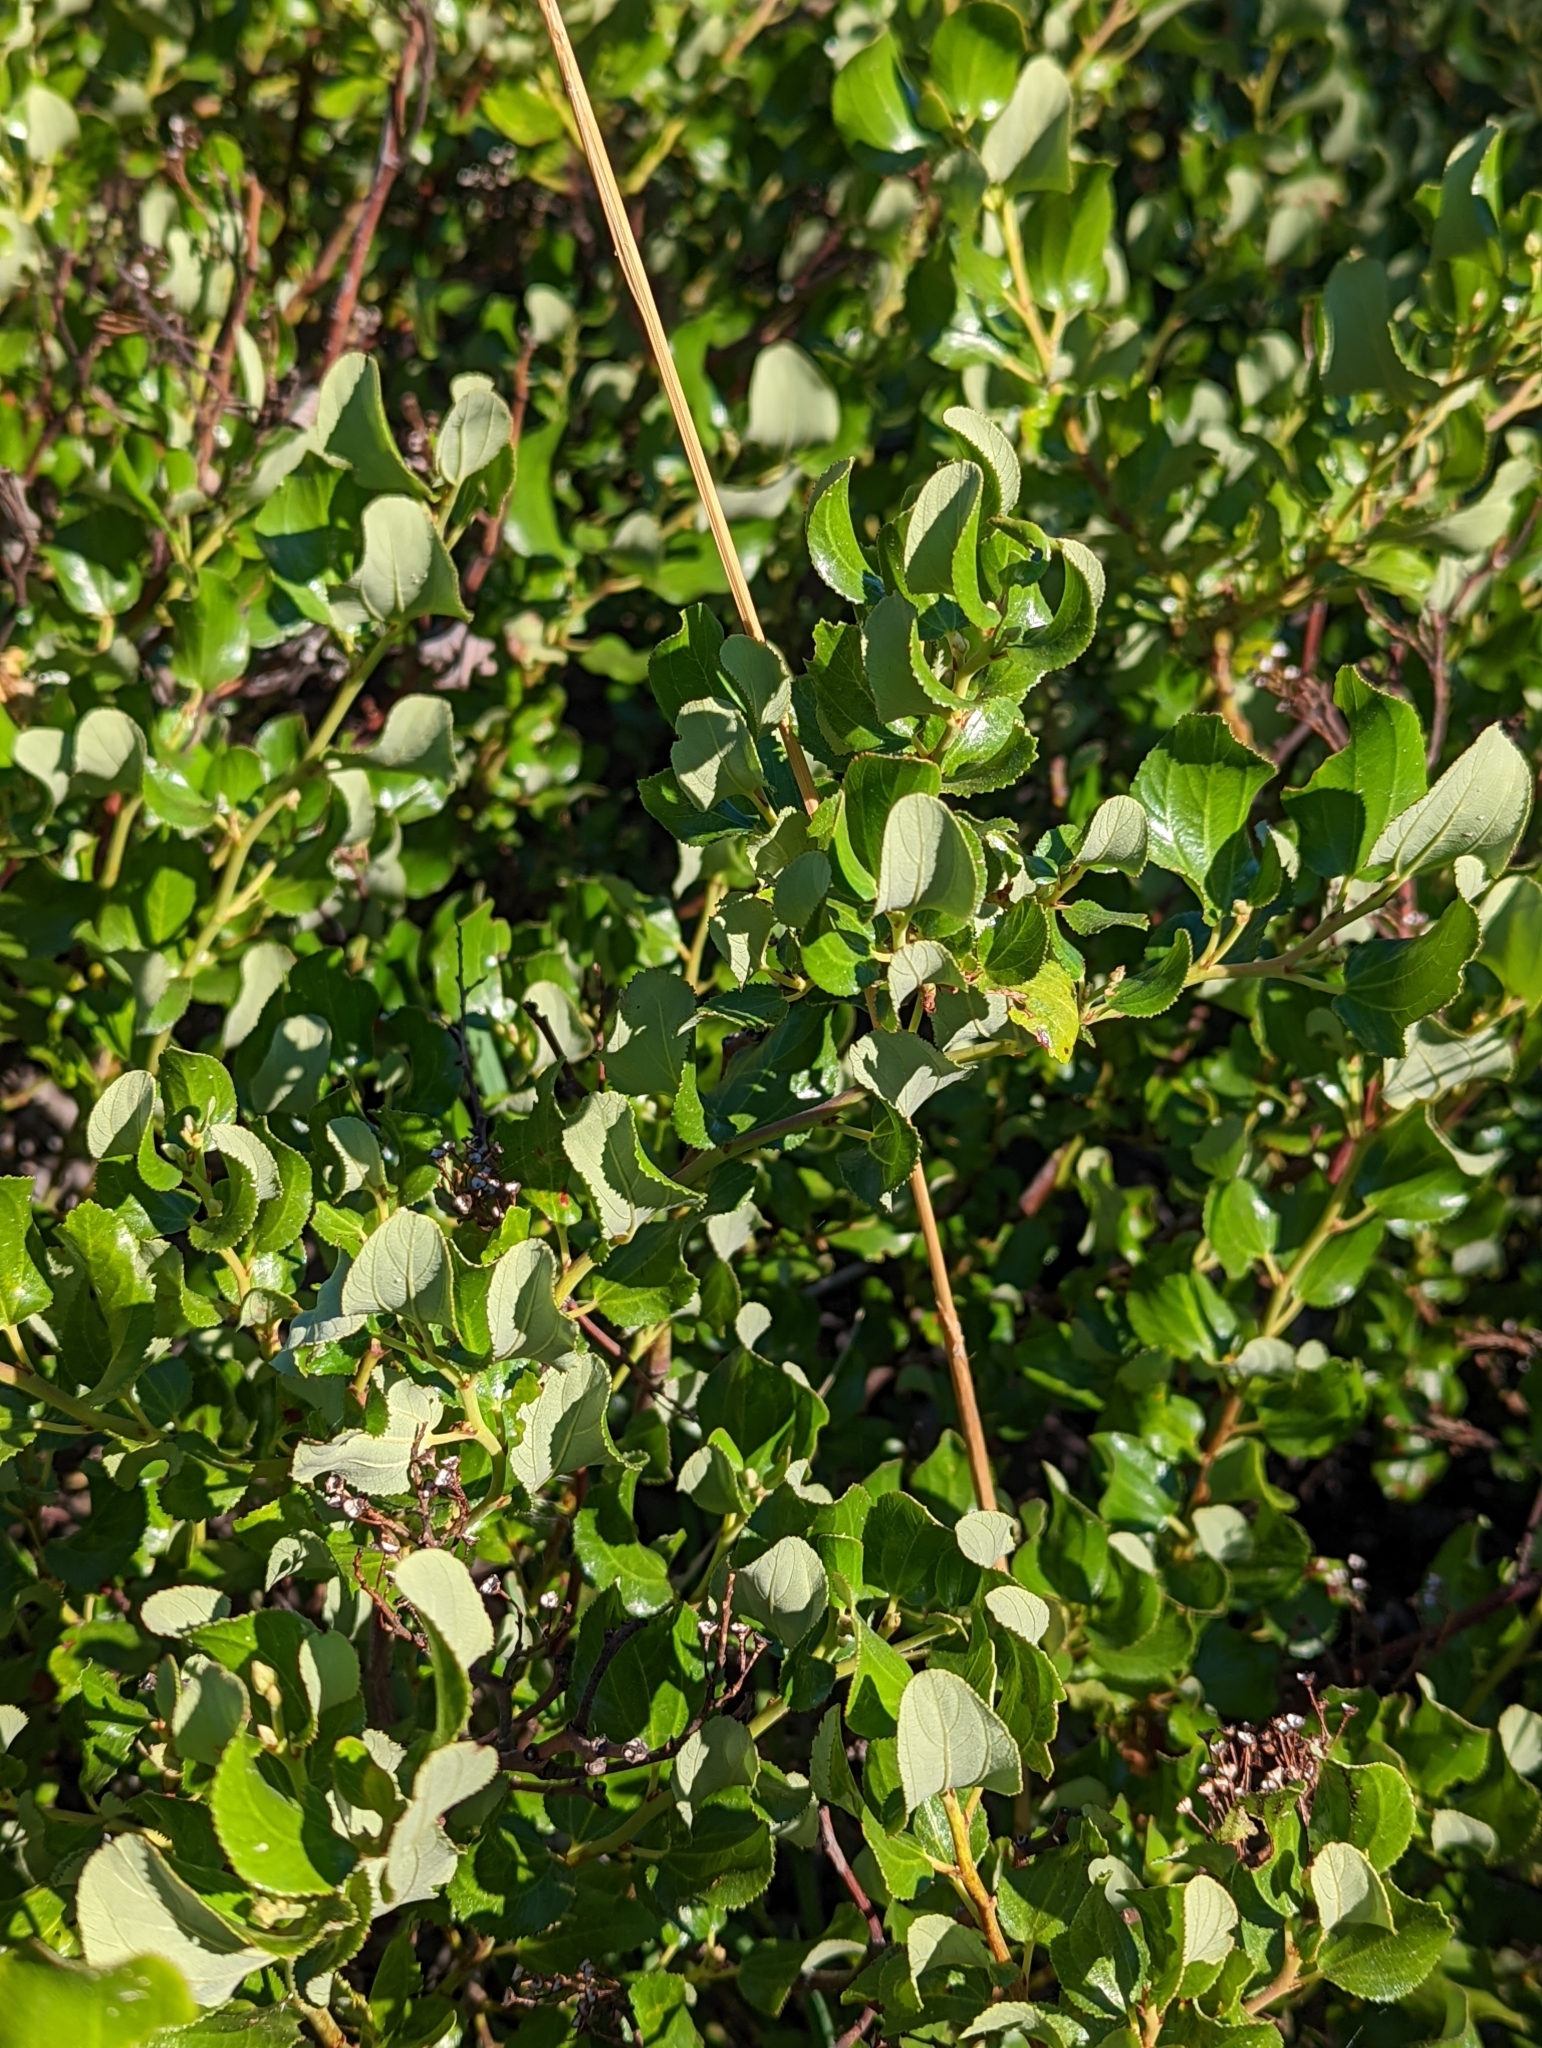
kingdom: Plantae
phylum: Tracheophyta
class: Magnoliopsida
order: Rosales
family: Rhamnaceae
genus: Ceanothus
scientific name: Ceanothus velutinus
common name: Snowbrush
